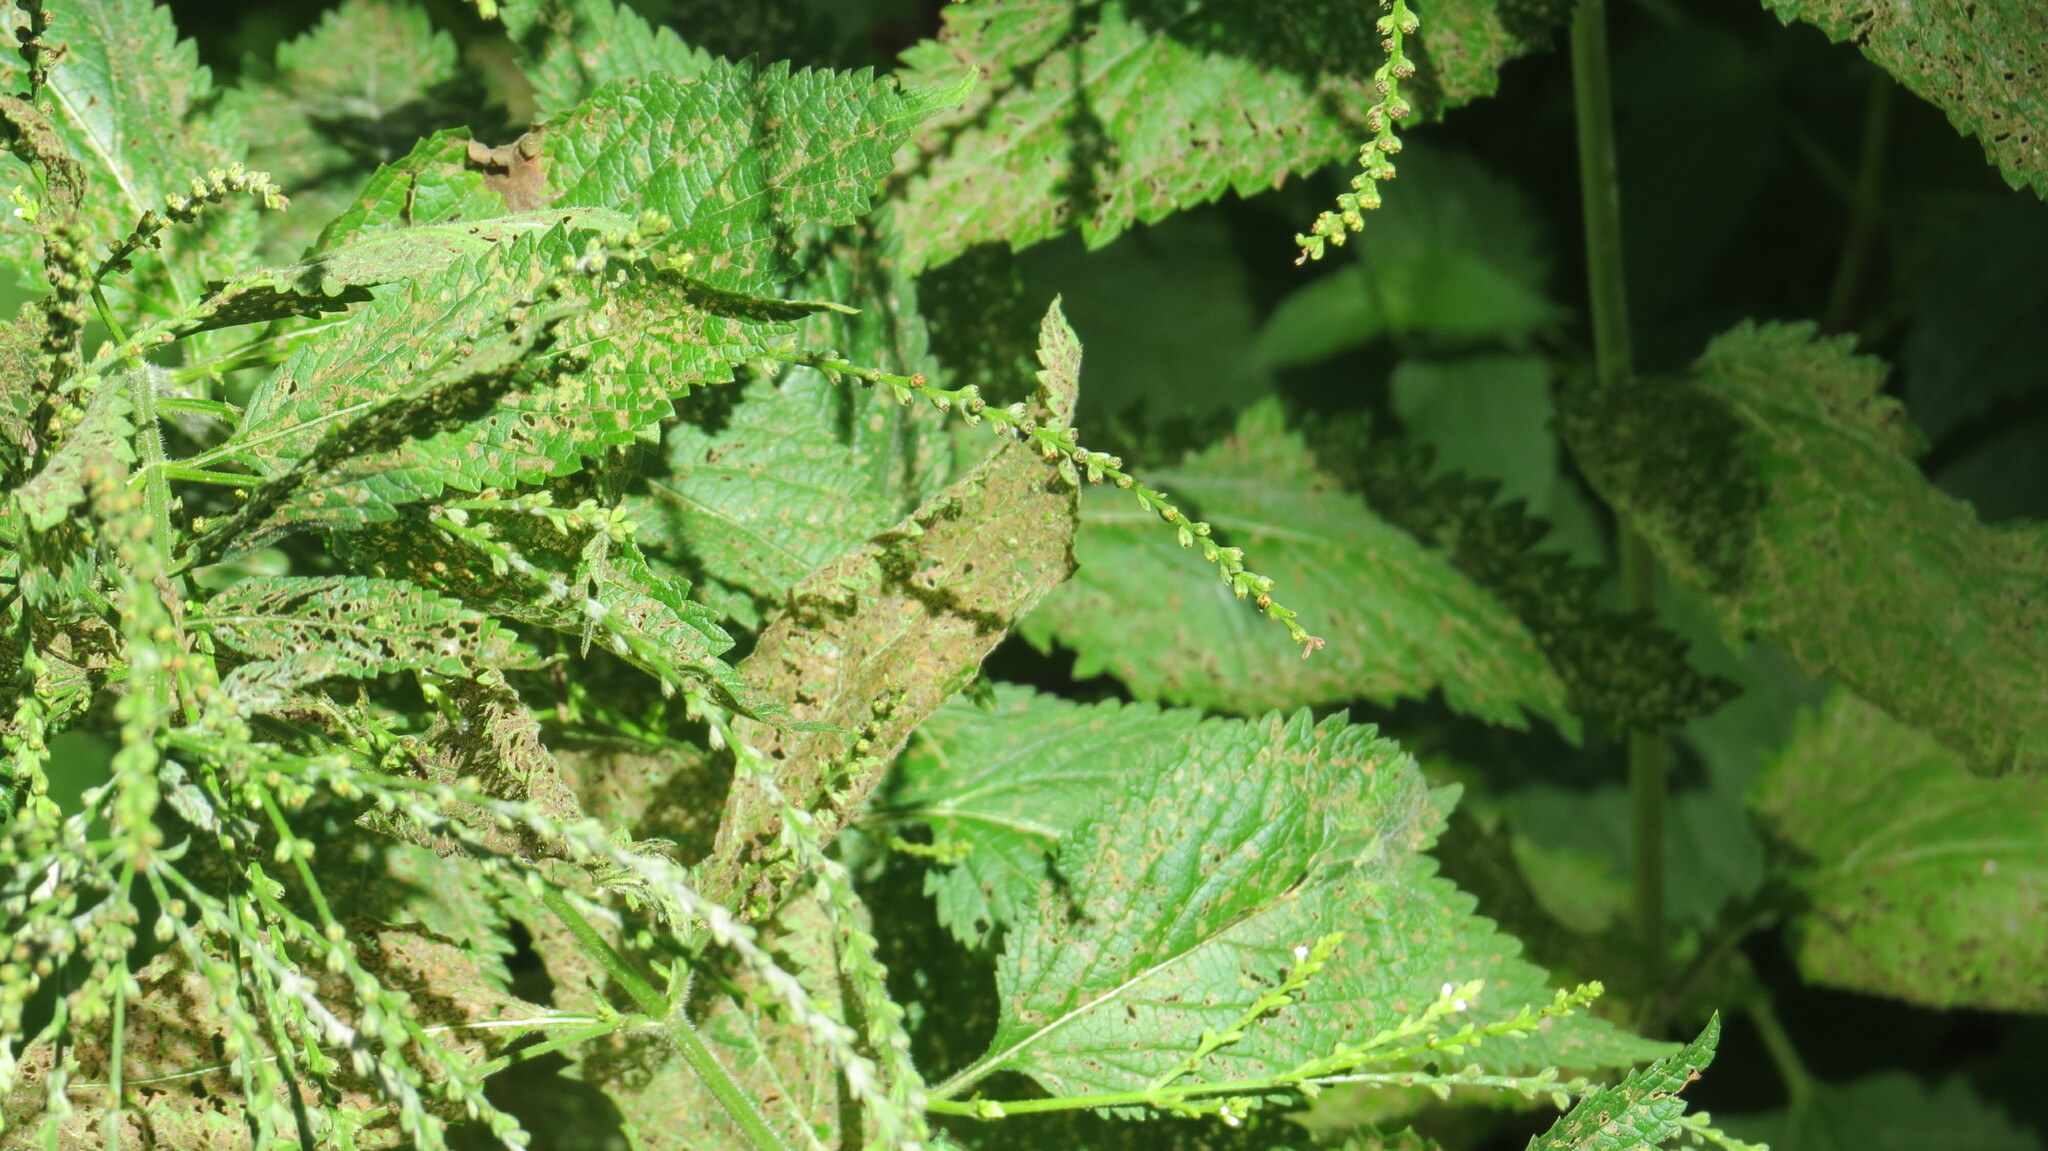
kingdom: Plantae
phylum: Tracheophyta
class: Magnoliopsida
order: Lamiales
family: Verbenaceae
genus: Verbena
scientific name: Verbena urticifolia
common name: Nettle-leaved vervain
